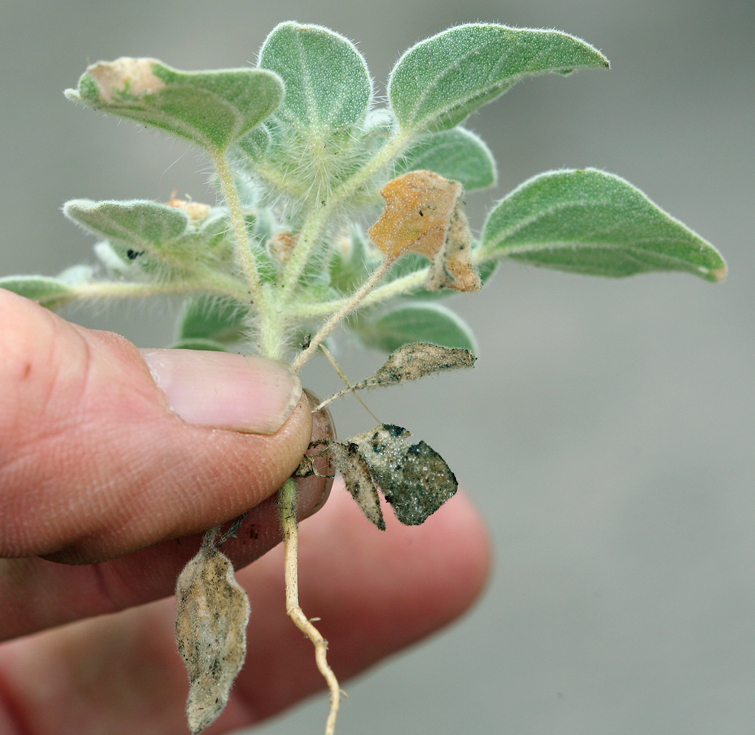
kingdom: Plantae
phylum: Tracheophyta
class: Magnoliopsida
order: Malpighiales
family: Euphorbiaceae
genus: Croton
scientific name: Croton setiger
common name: Dove weed
